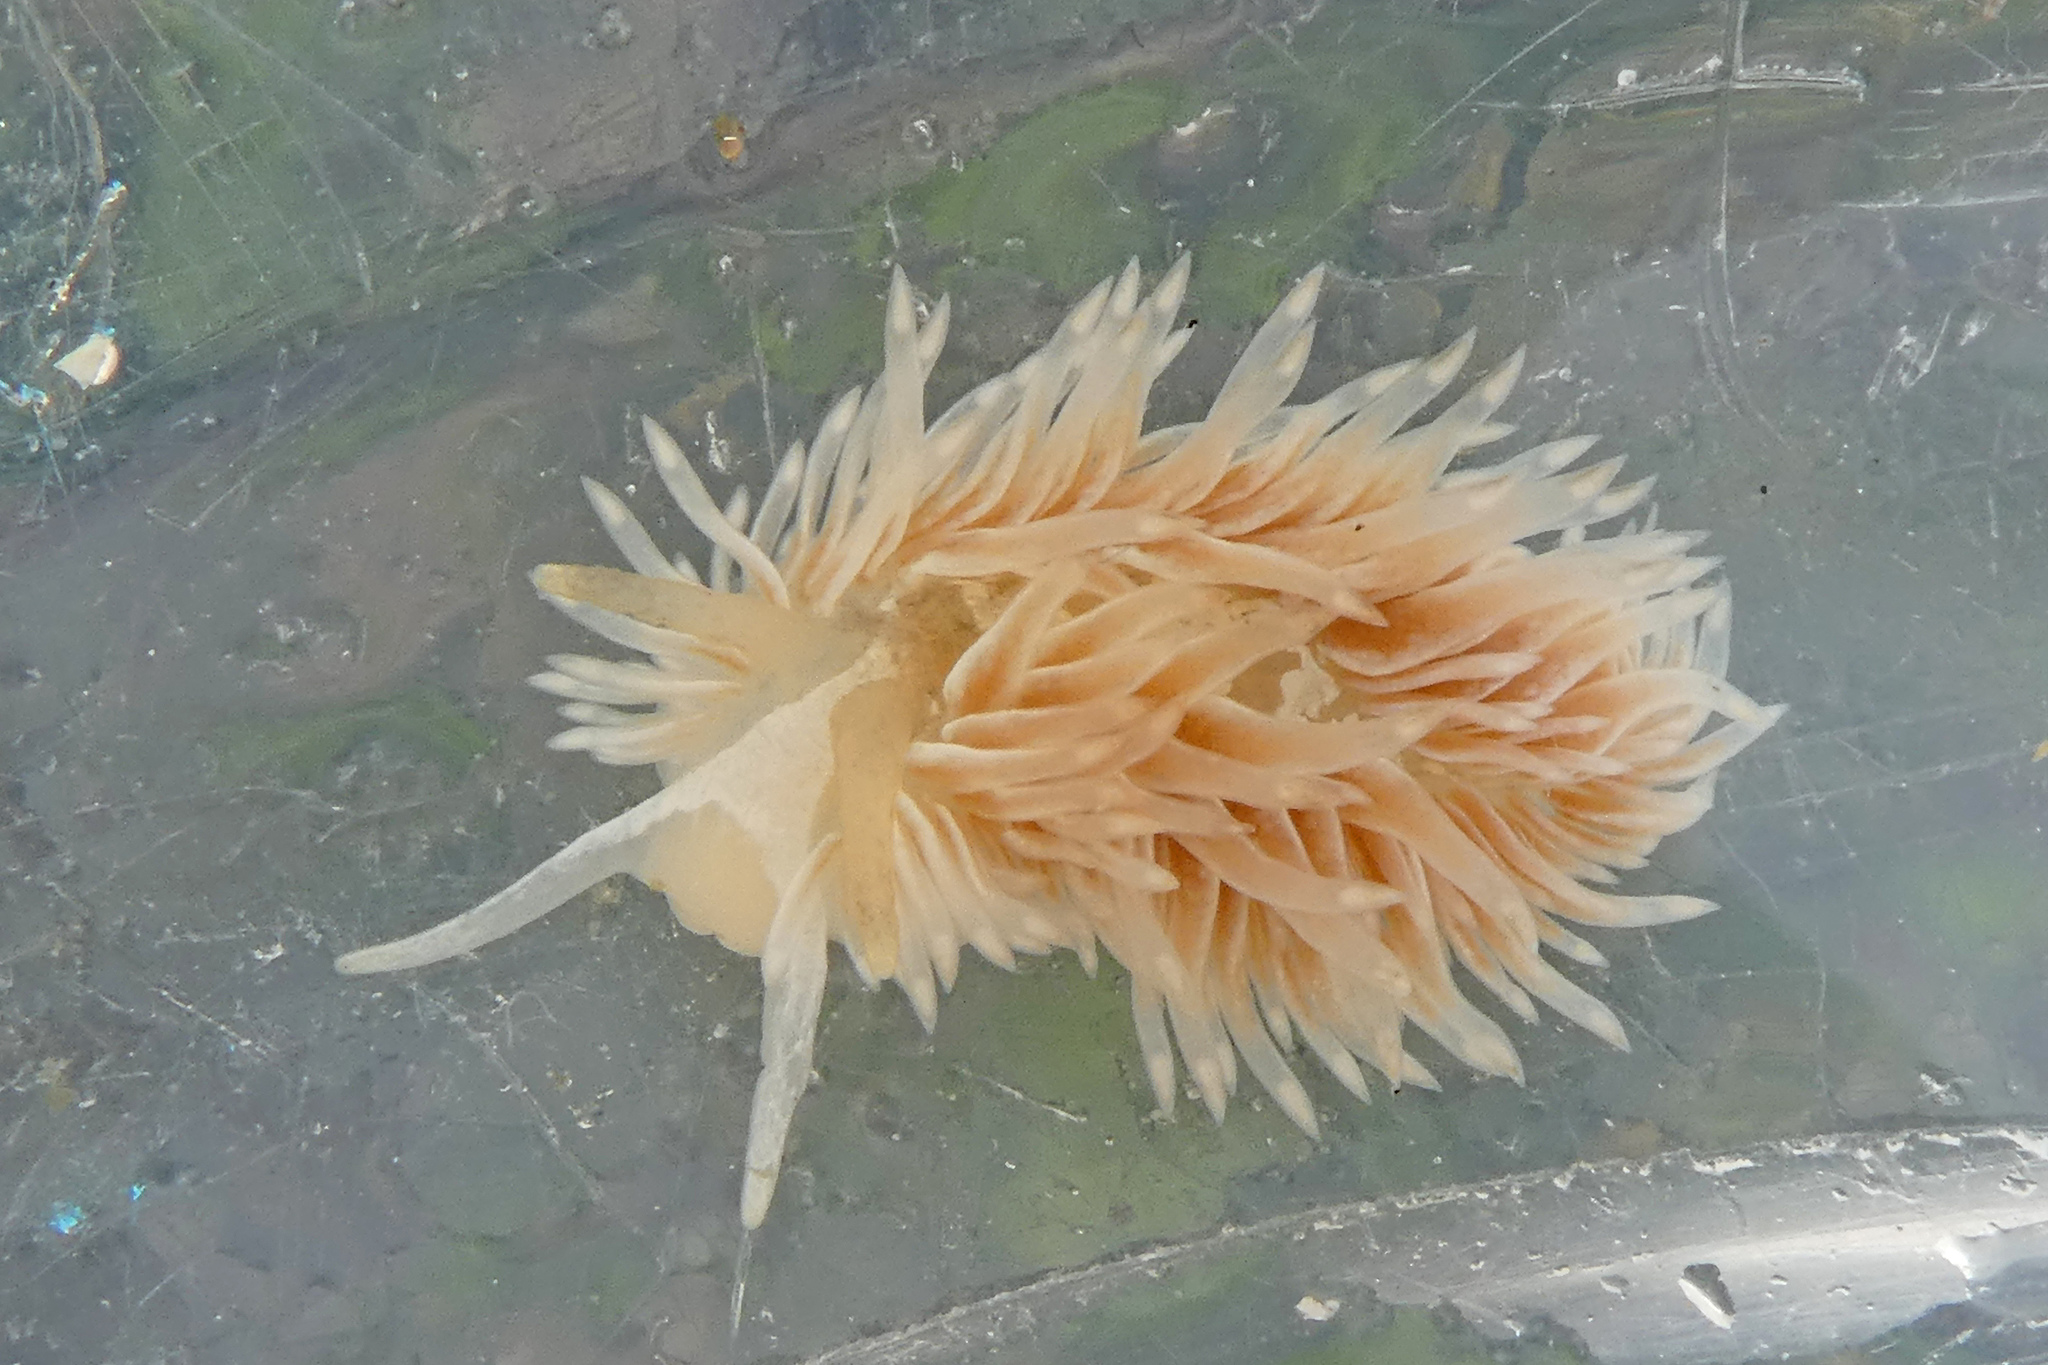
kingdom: Animalia
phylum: Mollusca
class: Gastropoda
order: Nudibranchia
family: Aeolidiidae
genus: Aeolidia
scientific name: Aeolidia loui
